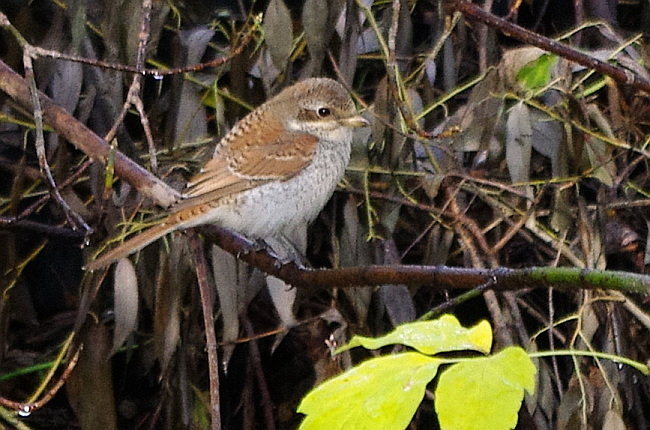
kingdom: Animalia
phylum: Chordata
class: Aves
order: Passeriformes
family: Laniidae
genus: Lanius
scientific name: Lanius collurio
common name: Red-backed shrike
